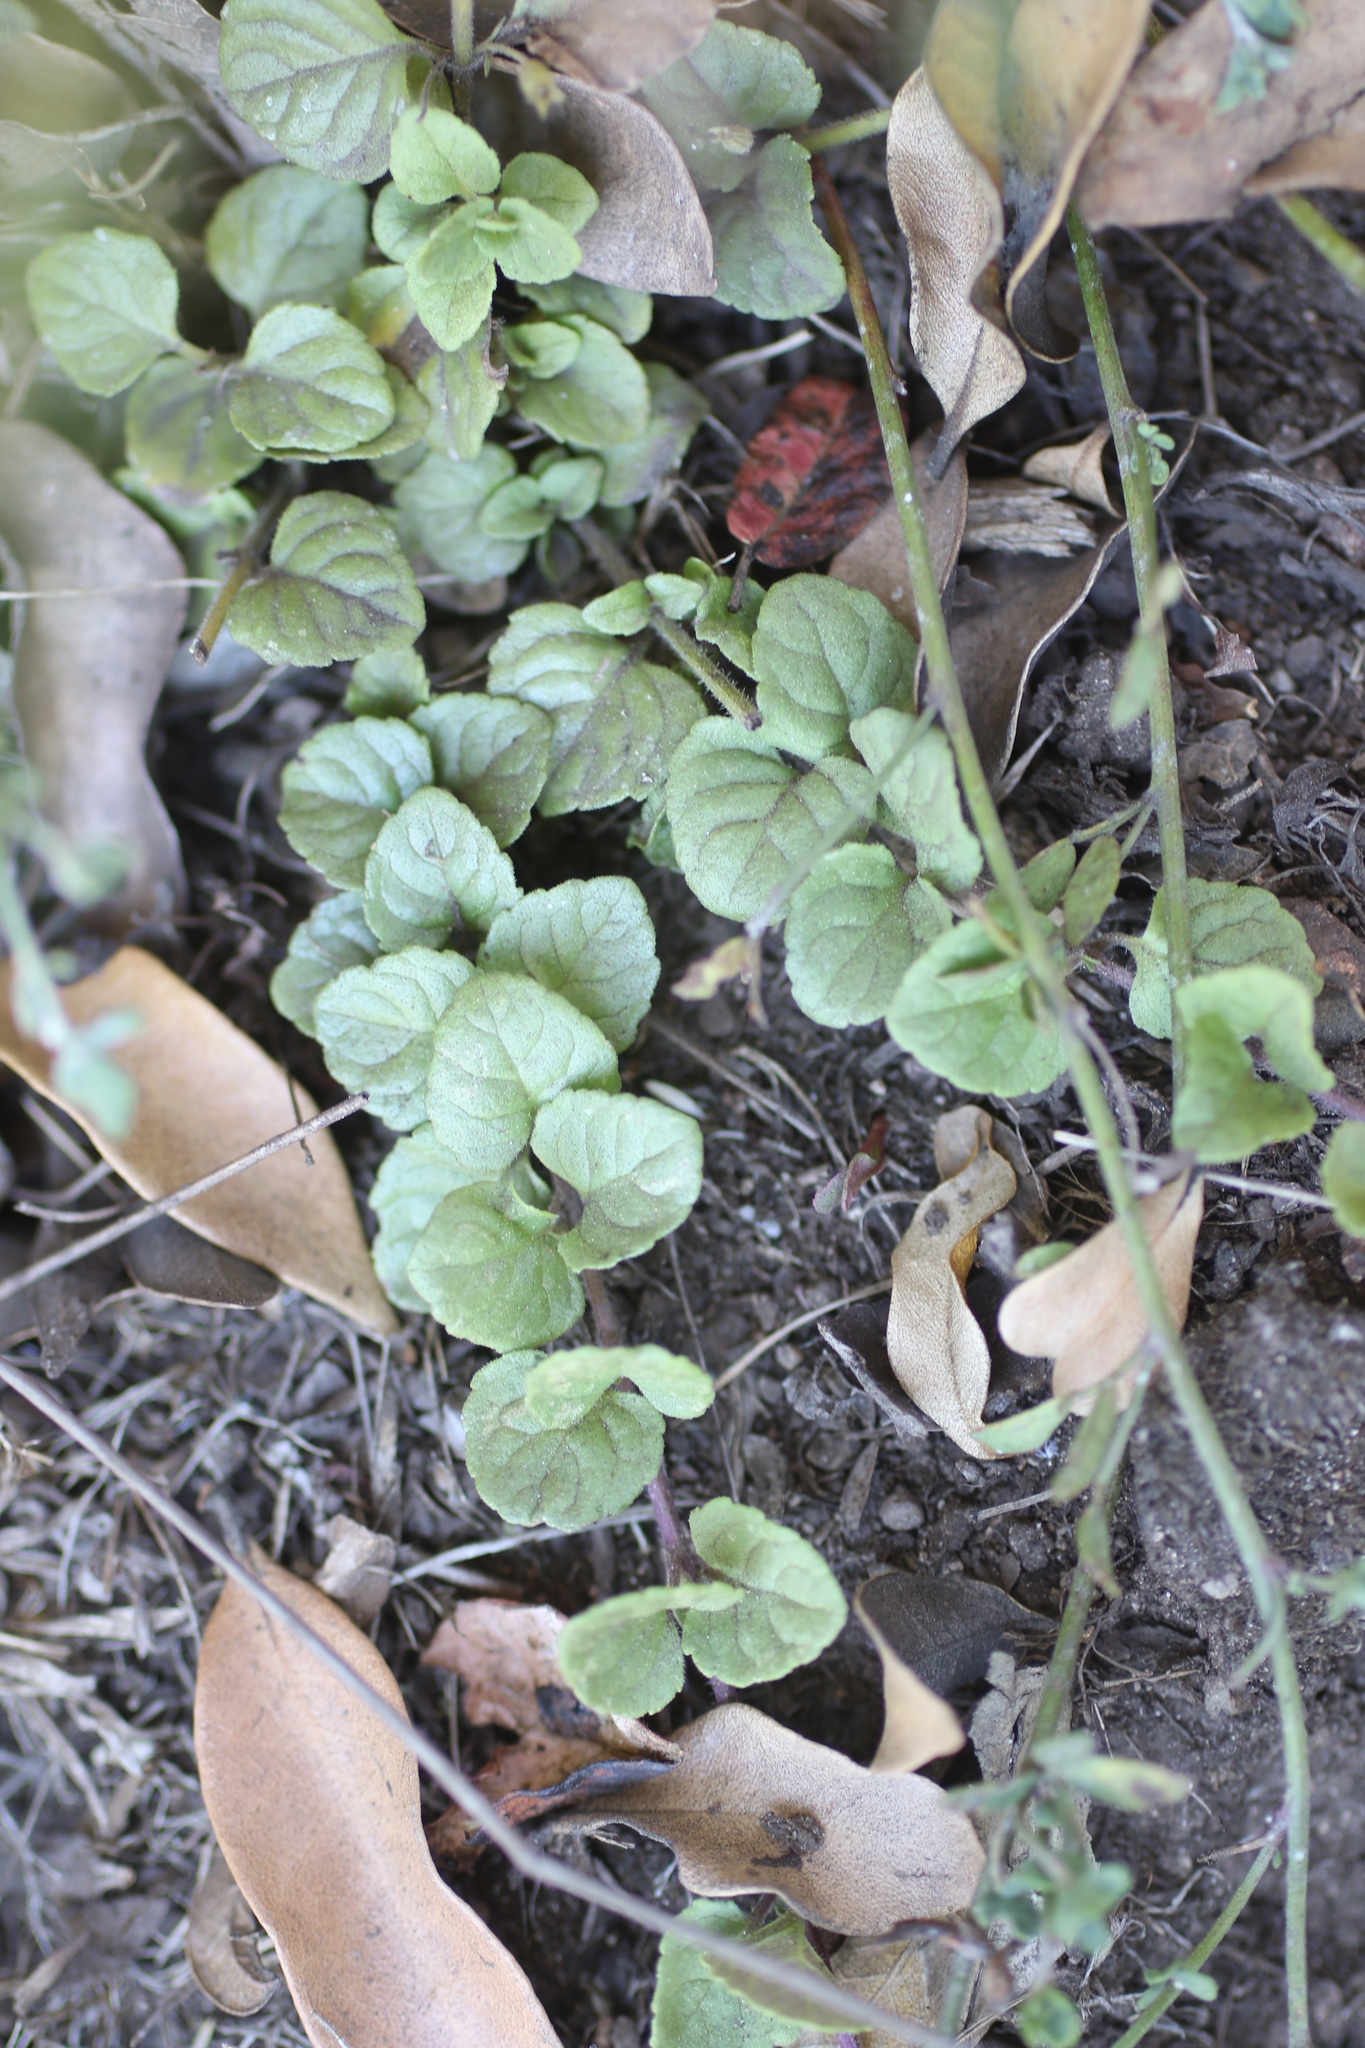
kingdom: Plantae
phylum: Tracheophyta
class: Magnoliopsida
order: Lamiales
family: Lamiaceae
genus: Micromeria
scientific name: Micromeria douglasii
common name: Yerba buena
